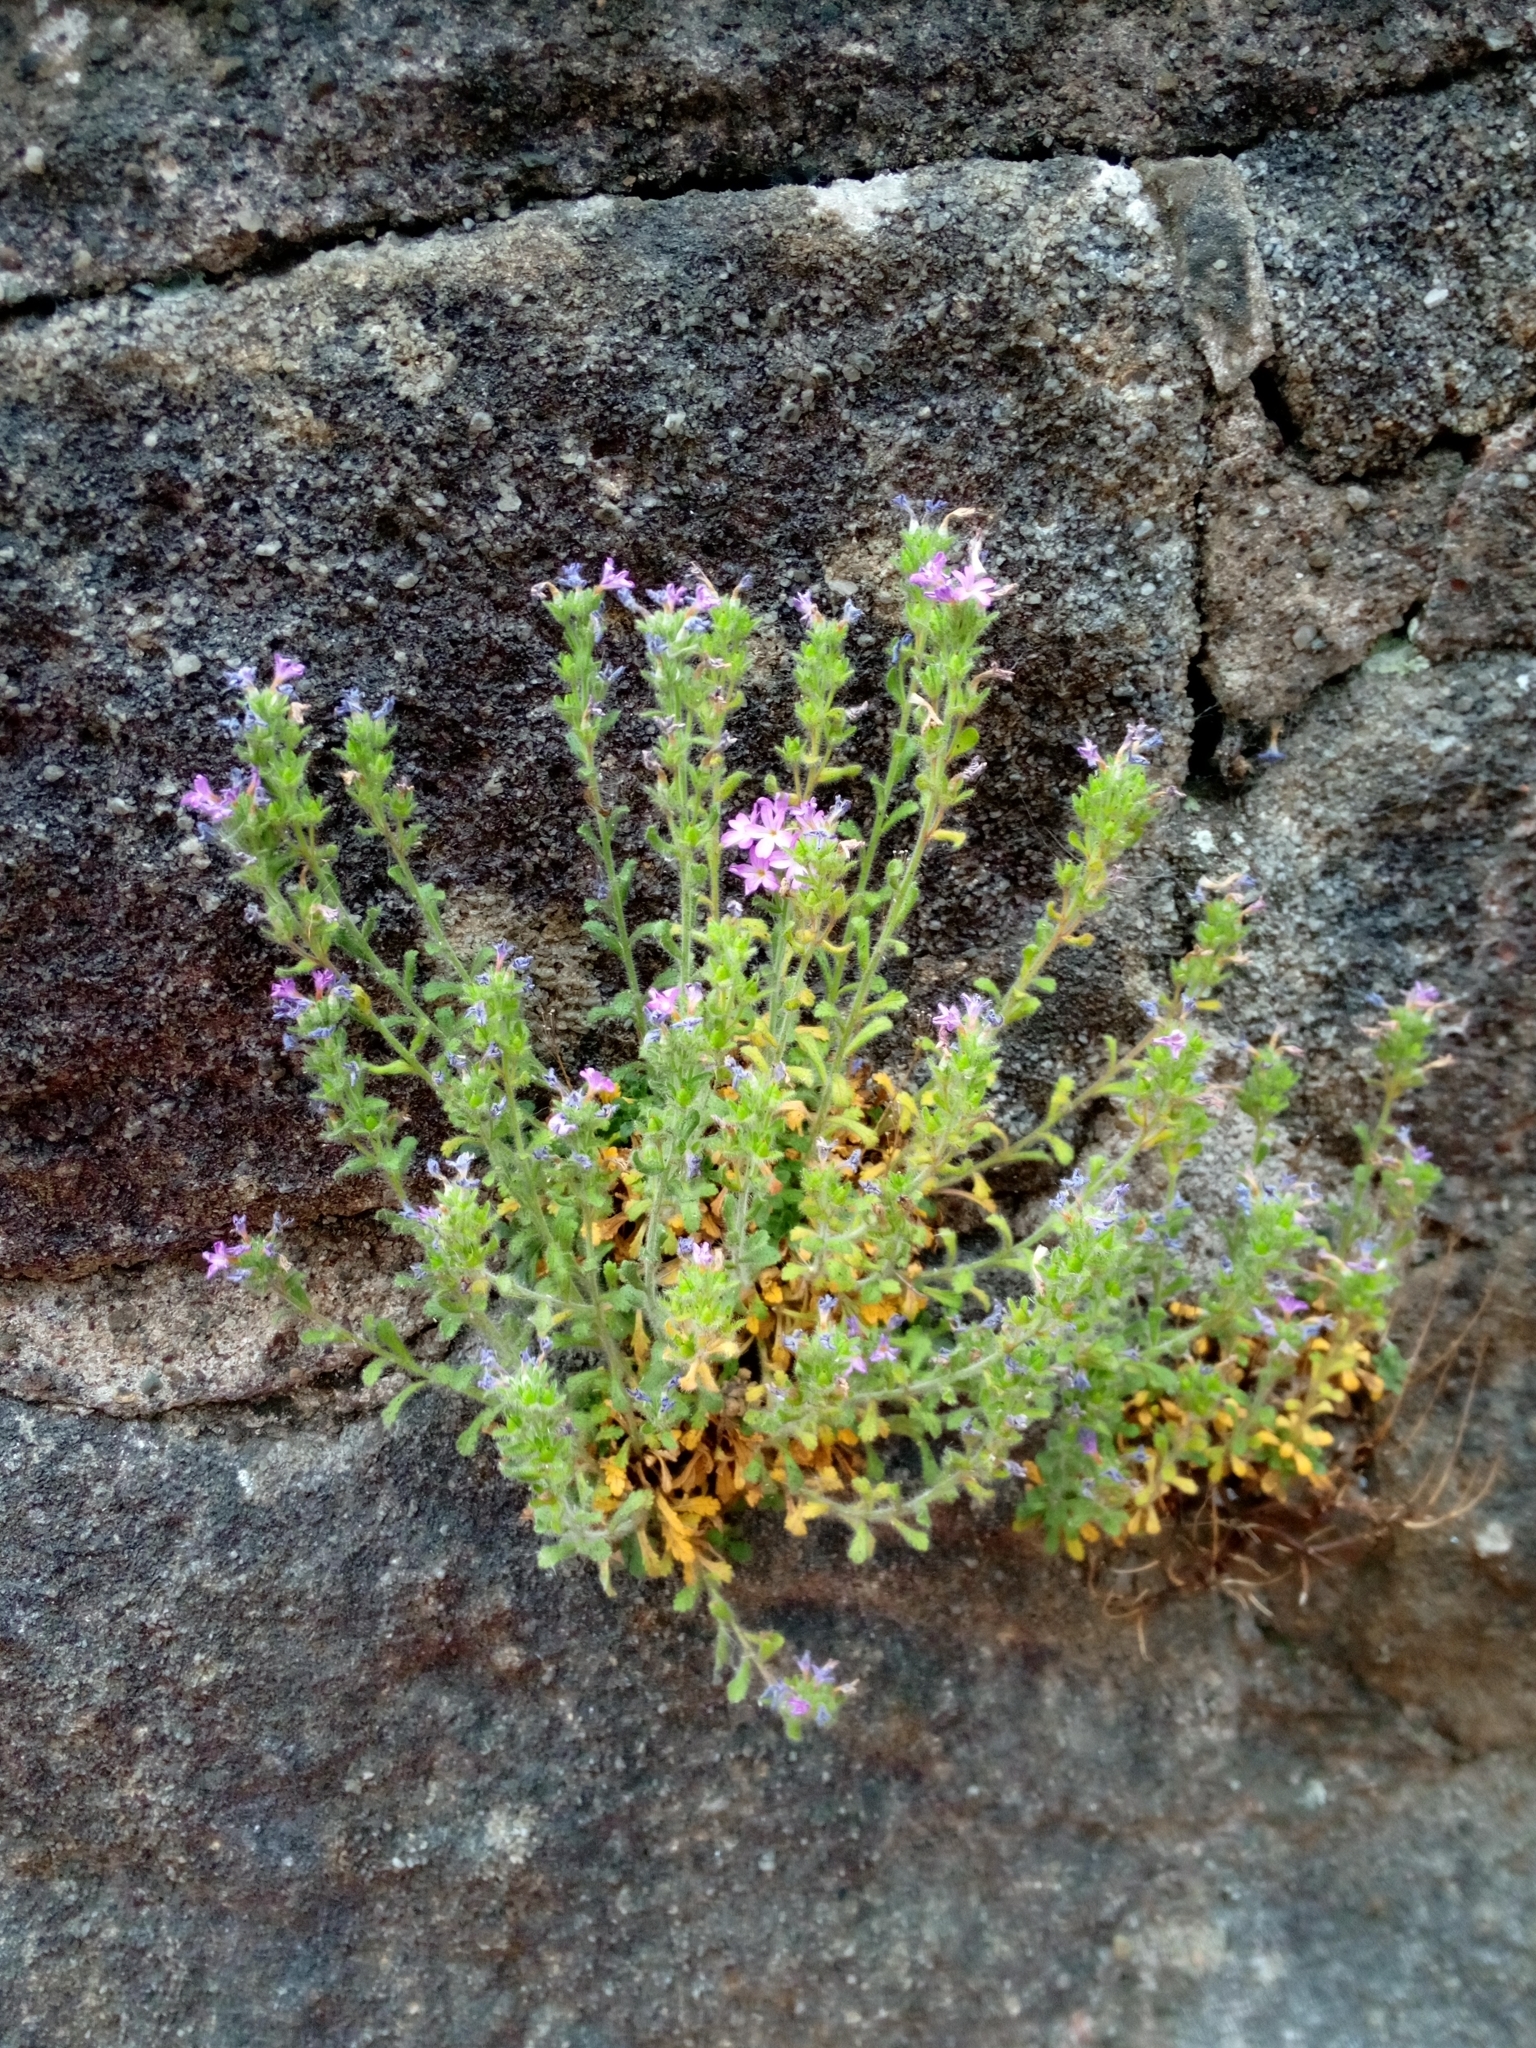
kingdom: Plantae
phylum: Tracheophyta
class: Magnoliopsida
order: Lamiales
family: Plantaginaceae
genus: Erinus
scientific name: Erinus alpinus
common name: Fairy foxglove
